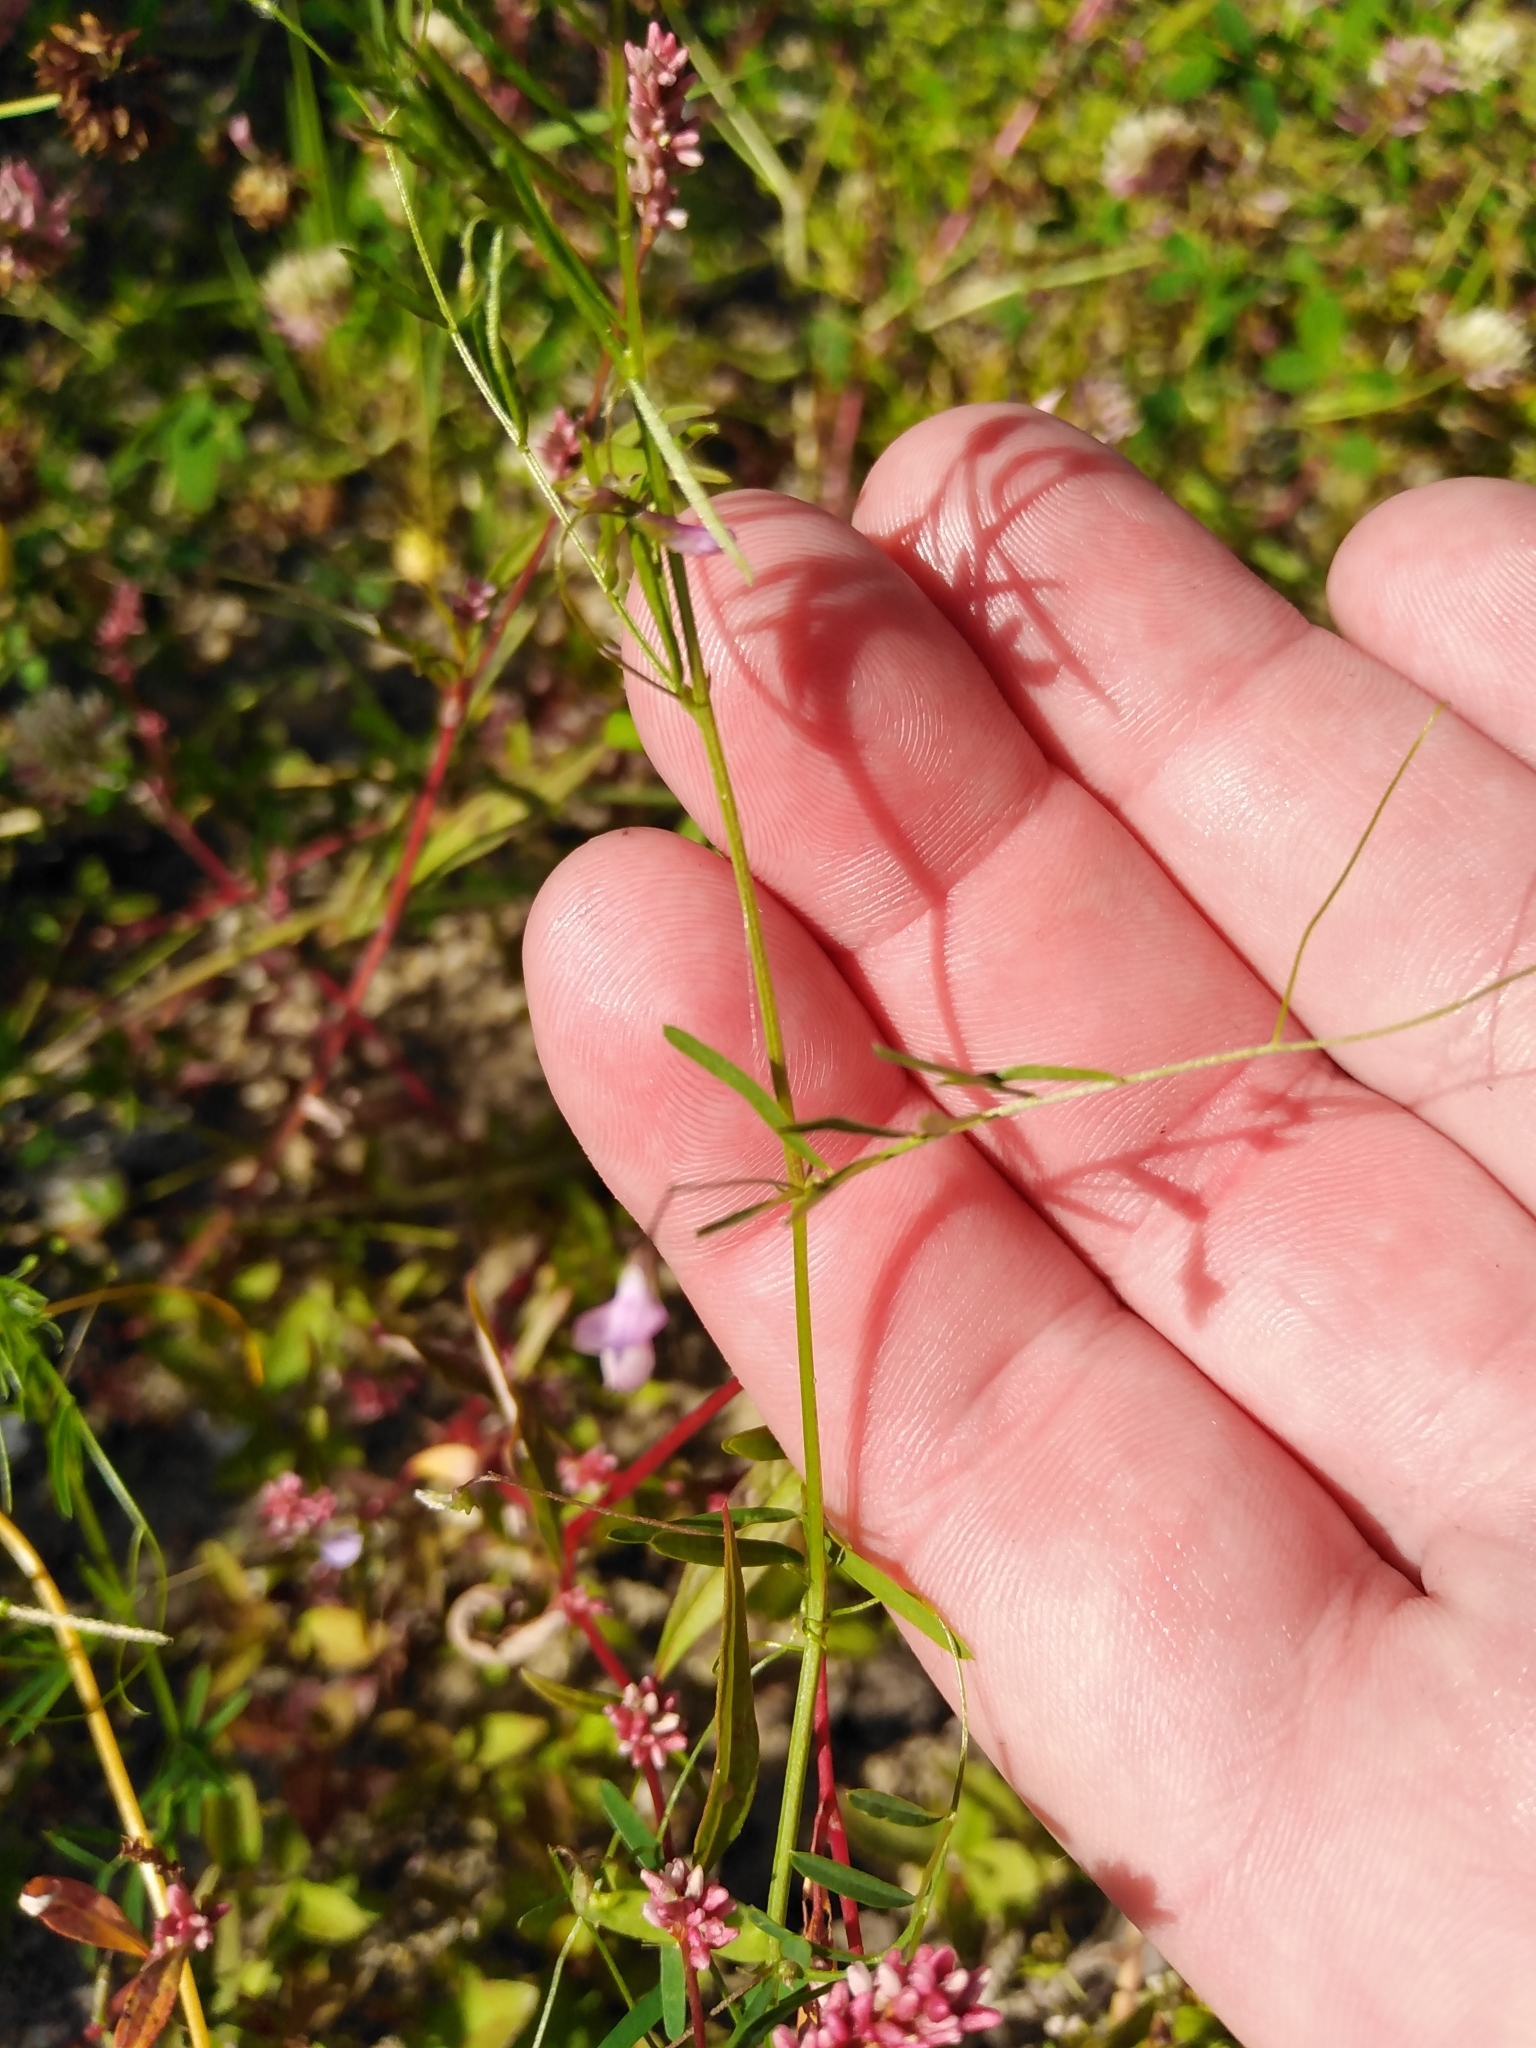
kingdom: Plantae
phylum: Tracheophyta
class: Magnoliopsida
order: Fabales
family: Fabaceae
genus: Vicia
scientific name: Vicia tetrasperma
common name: Smooth tare
